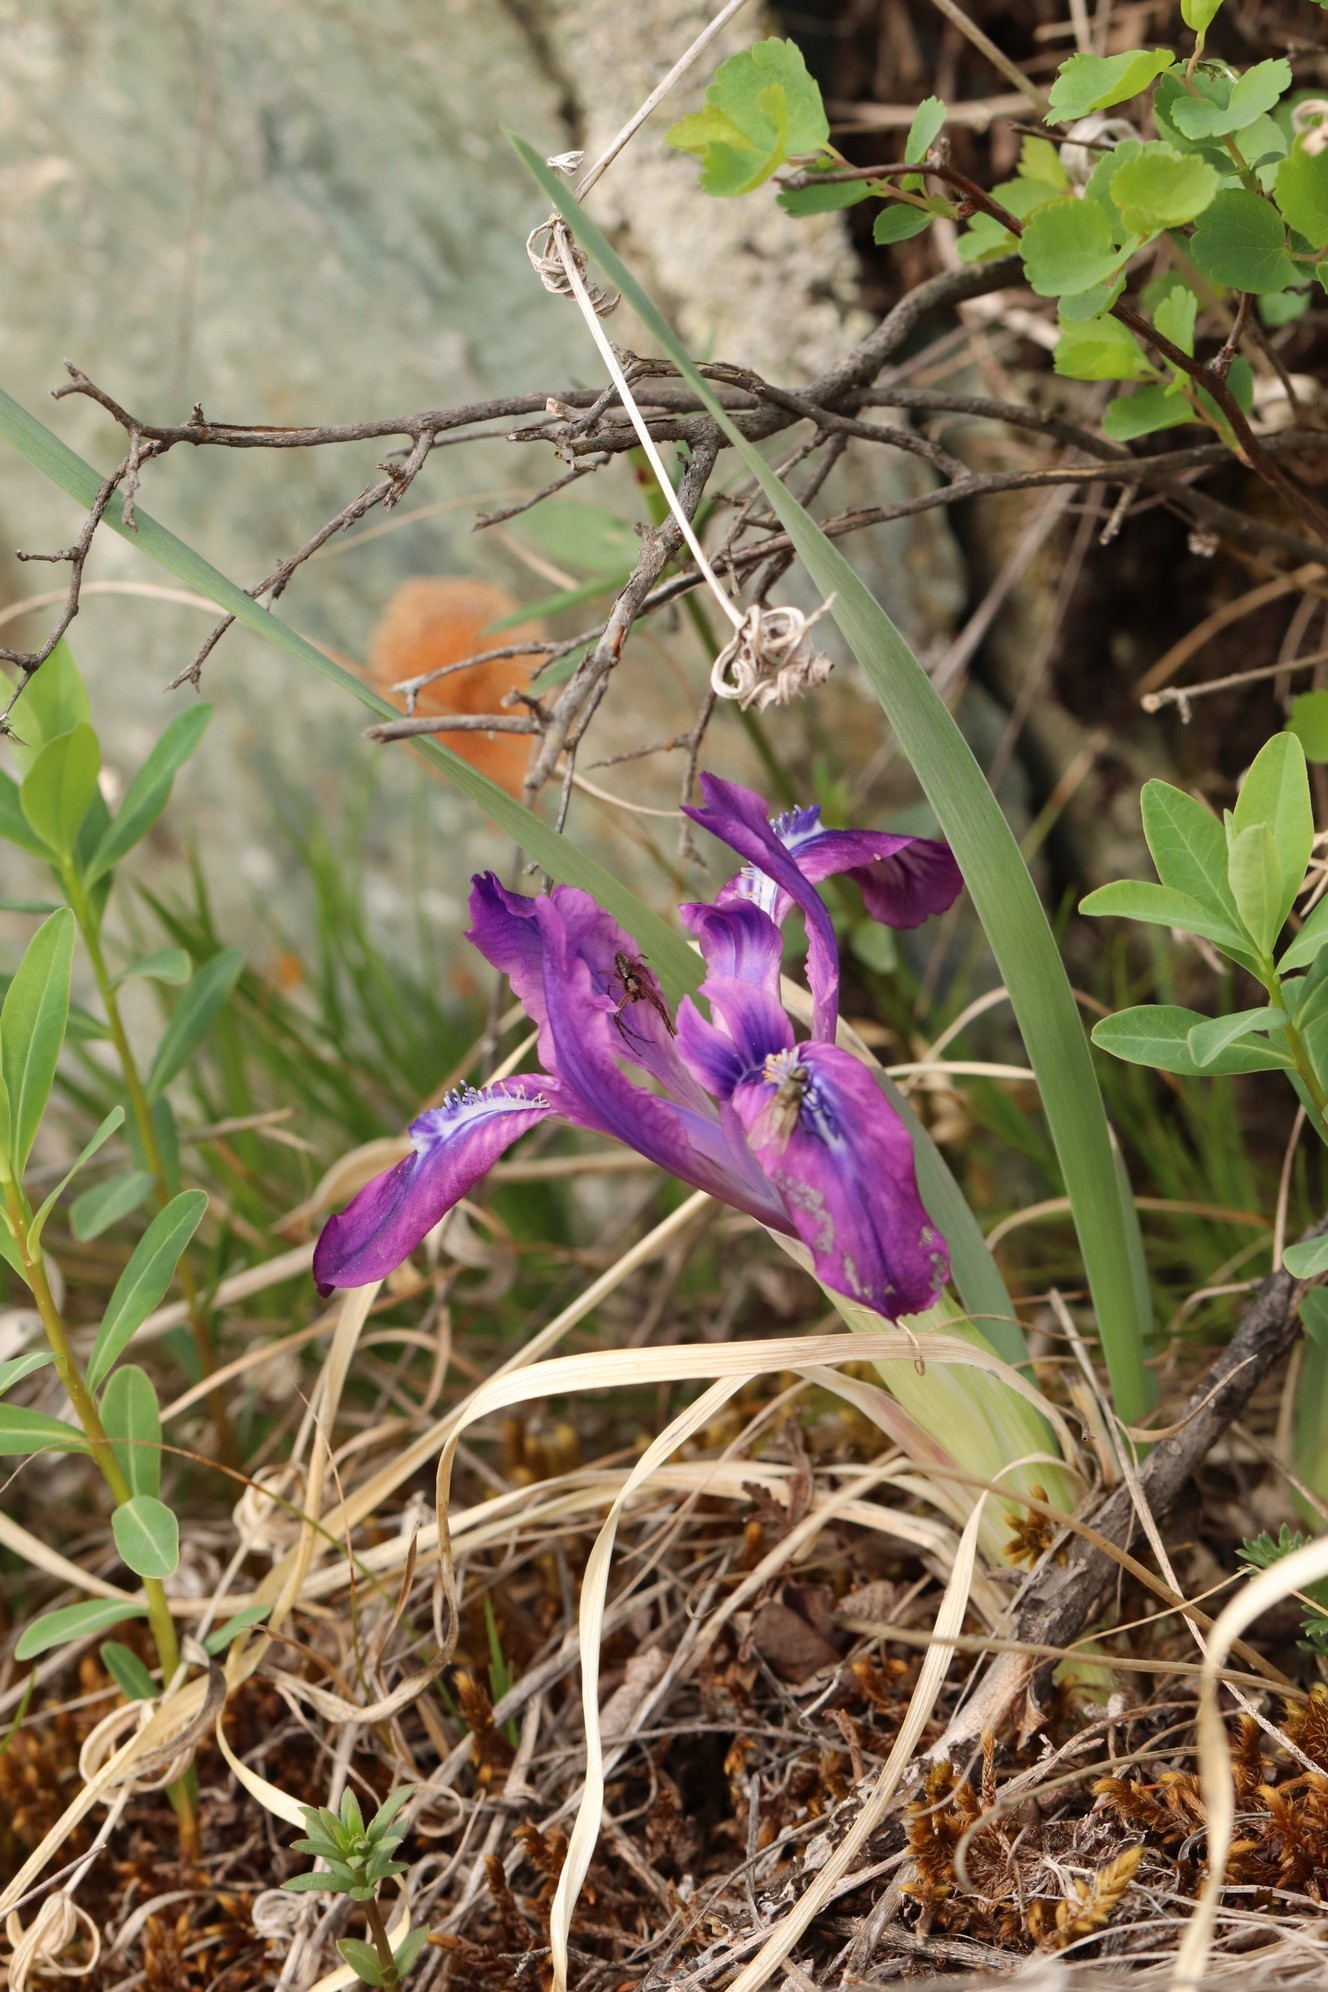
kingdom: Plantae
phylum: Tracheophyta
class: Liliopsida
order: Asparagales
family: Iridaceae
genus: Iris
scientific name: Iris tigridia
